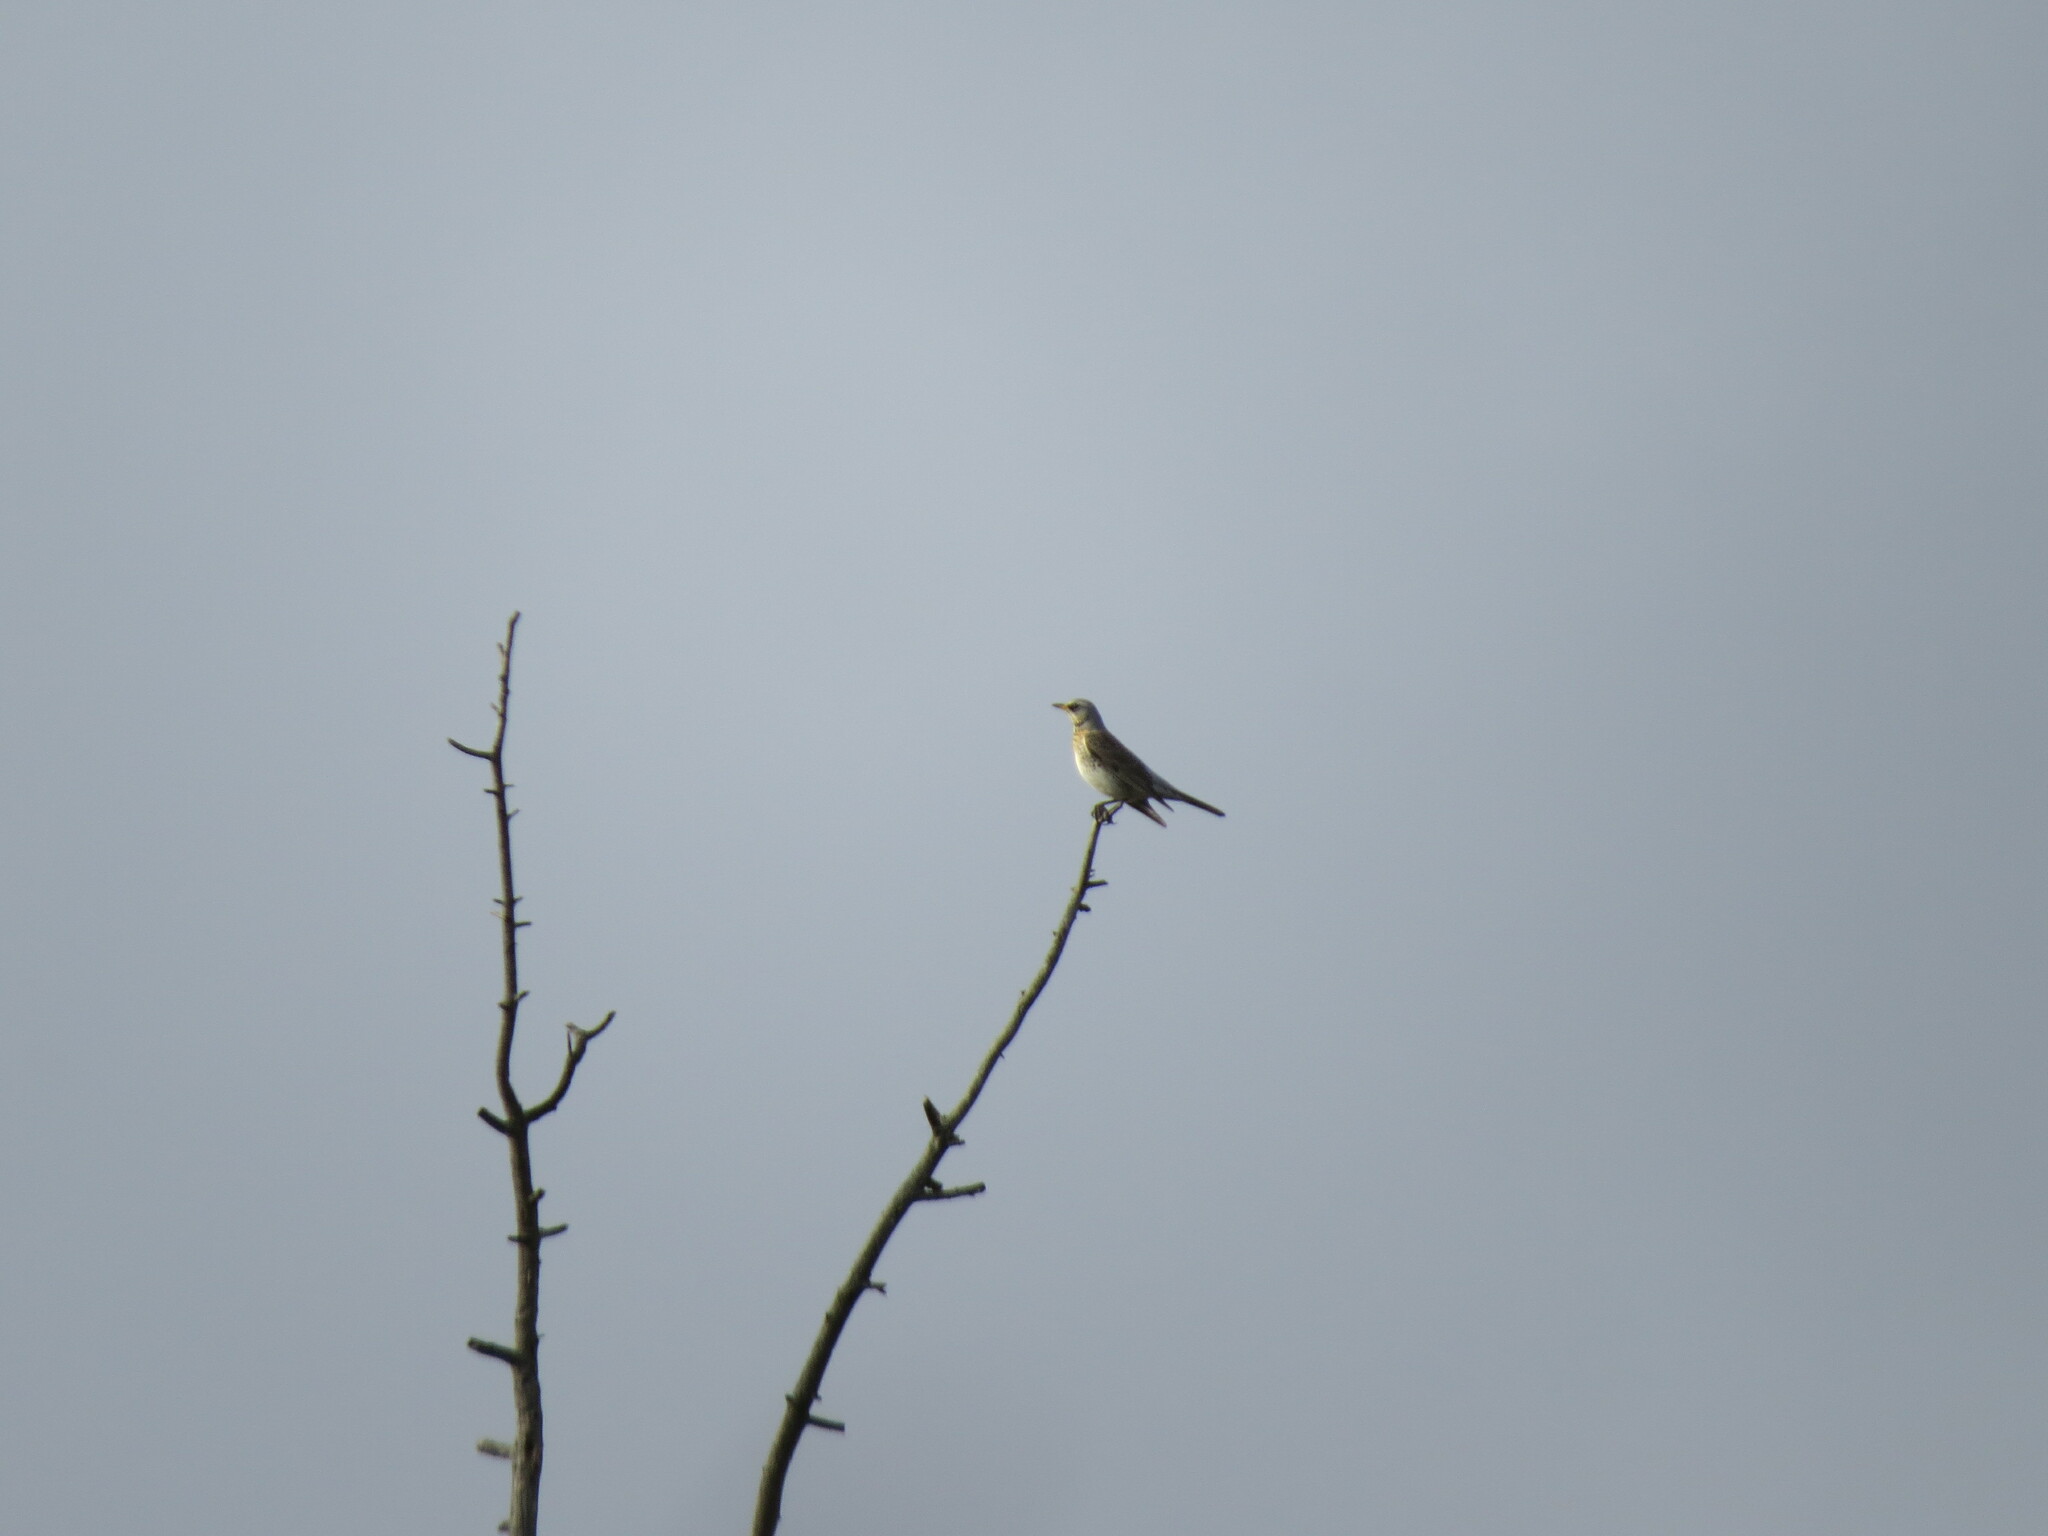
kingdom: Animalia
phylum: Chordata
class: Aves
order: Passeriformes
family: Turdidae
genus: Turdus
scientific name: Turdus pilaris
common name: Fieldfare
